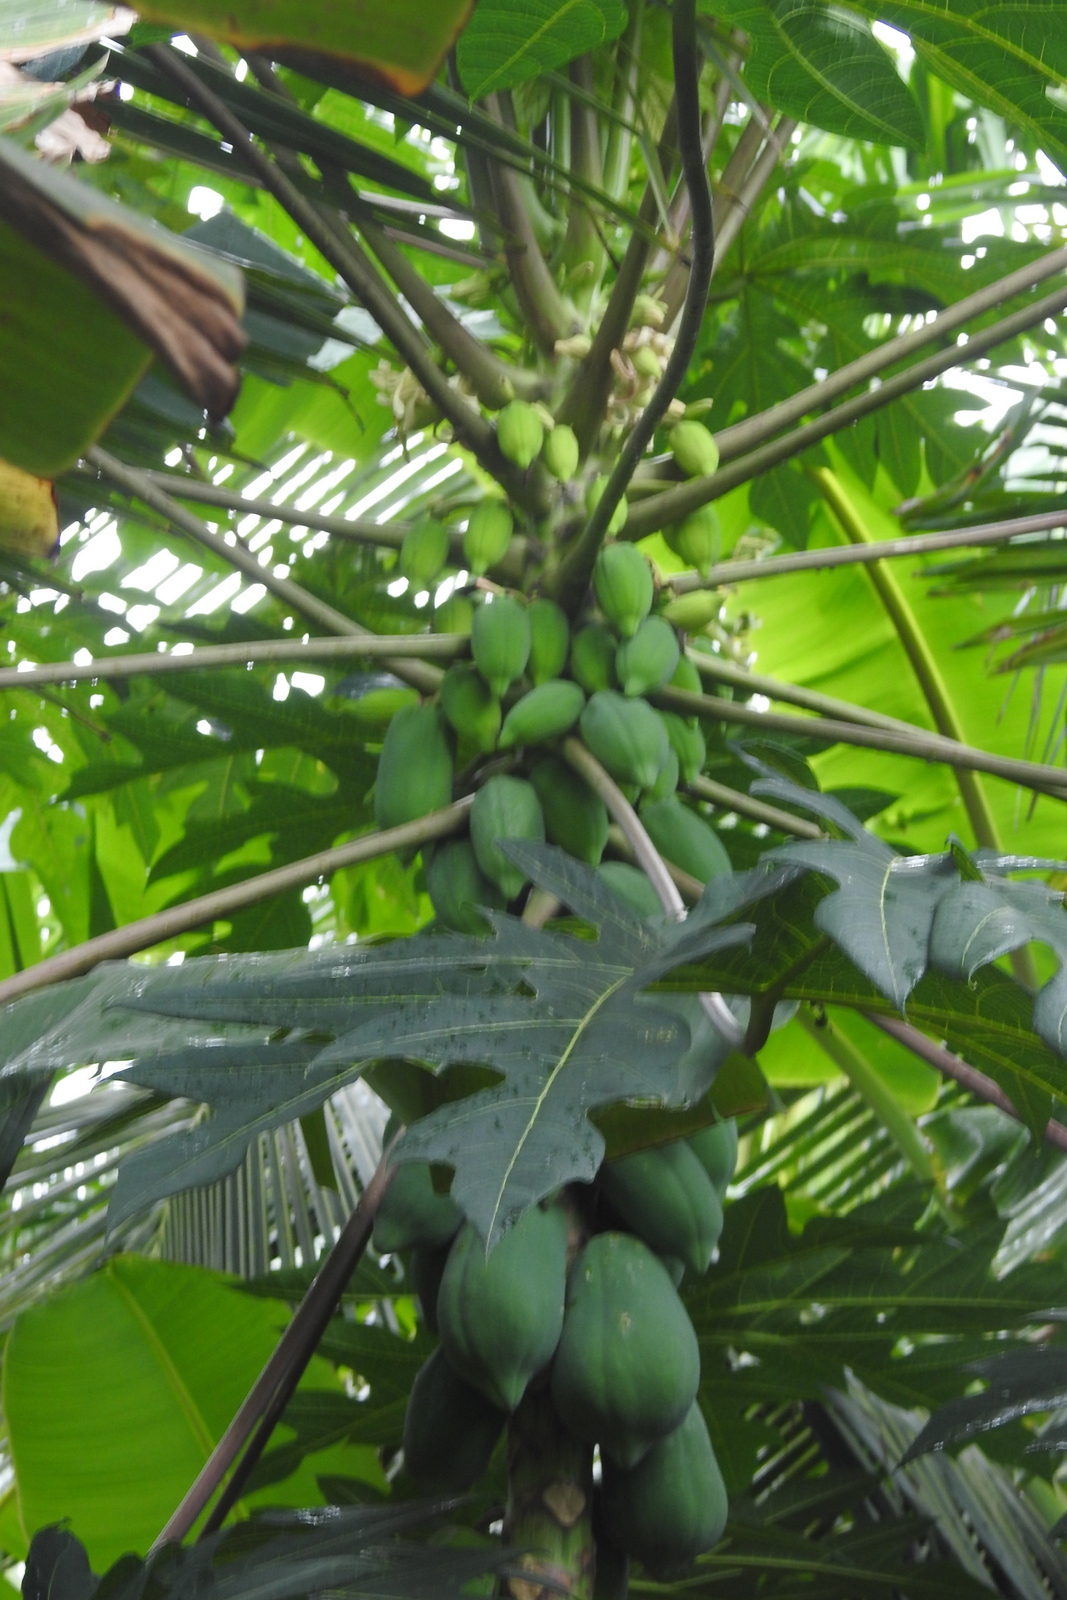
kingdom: Plantae
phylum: Tracheophyta
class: Magnoliopsida
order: Brassicales
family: Caricaceae
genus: Carica
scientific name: Carica papaya
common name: Papaya
